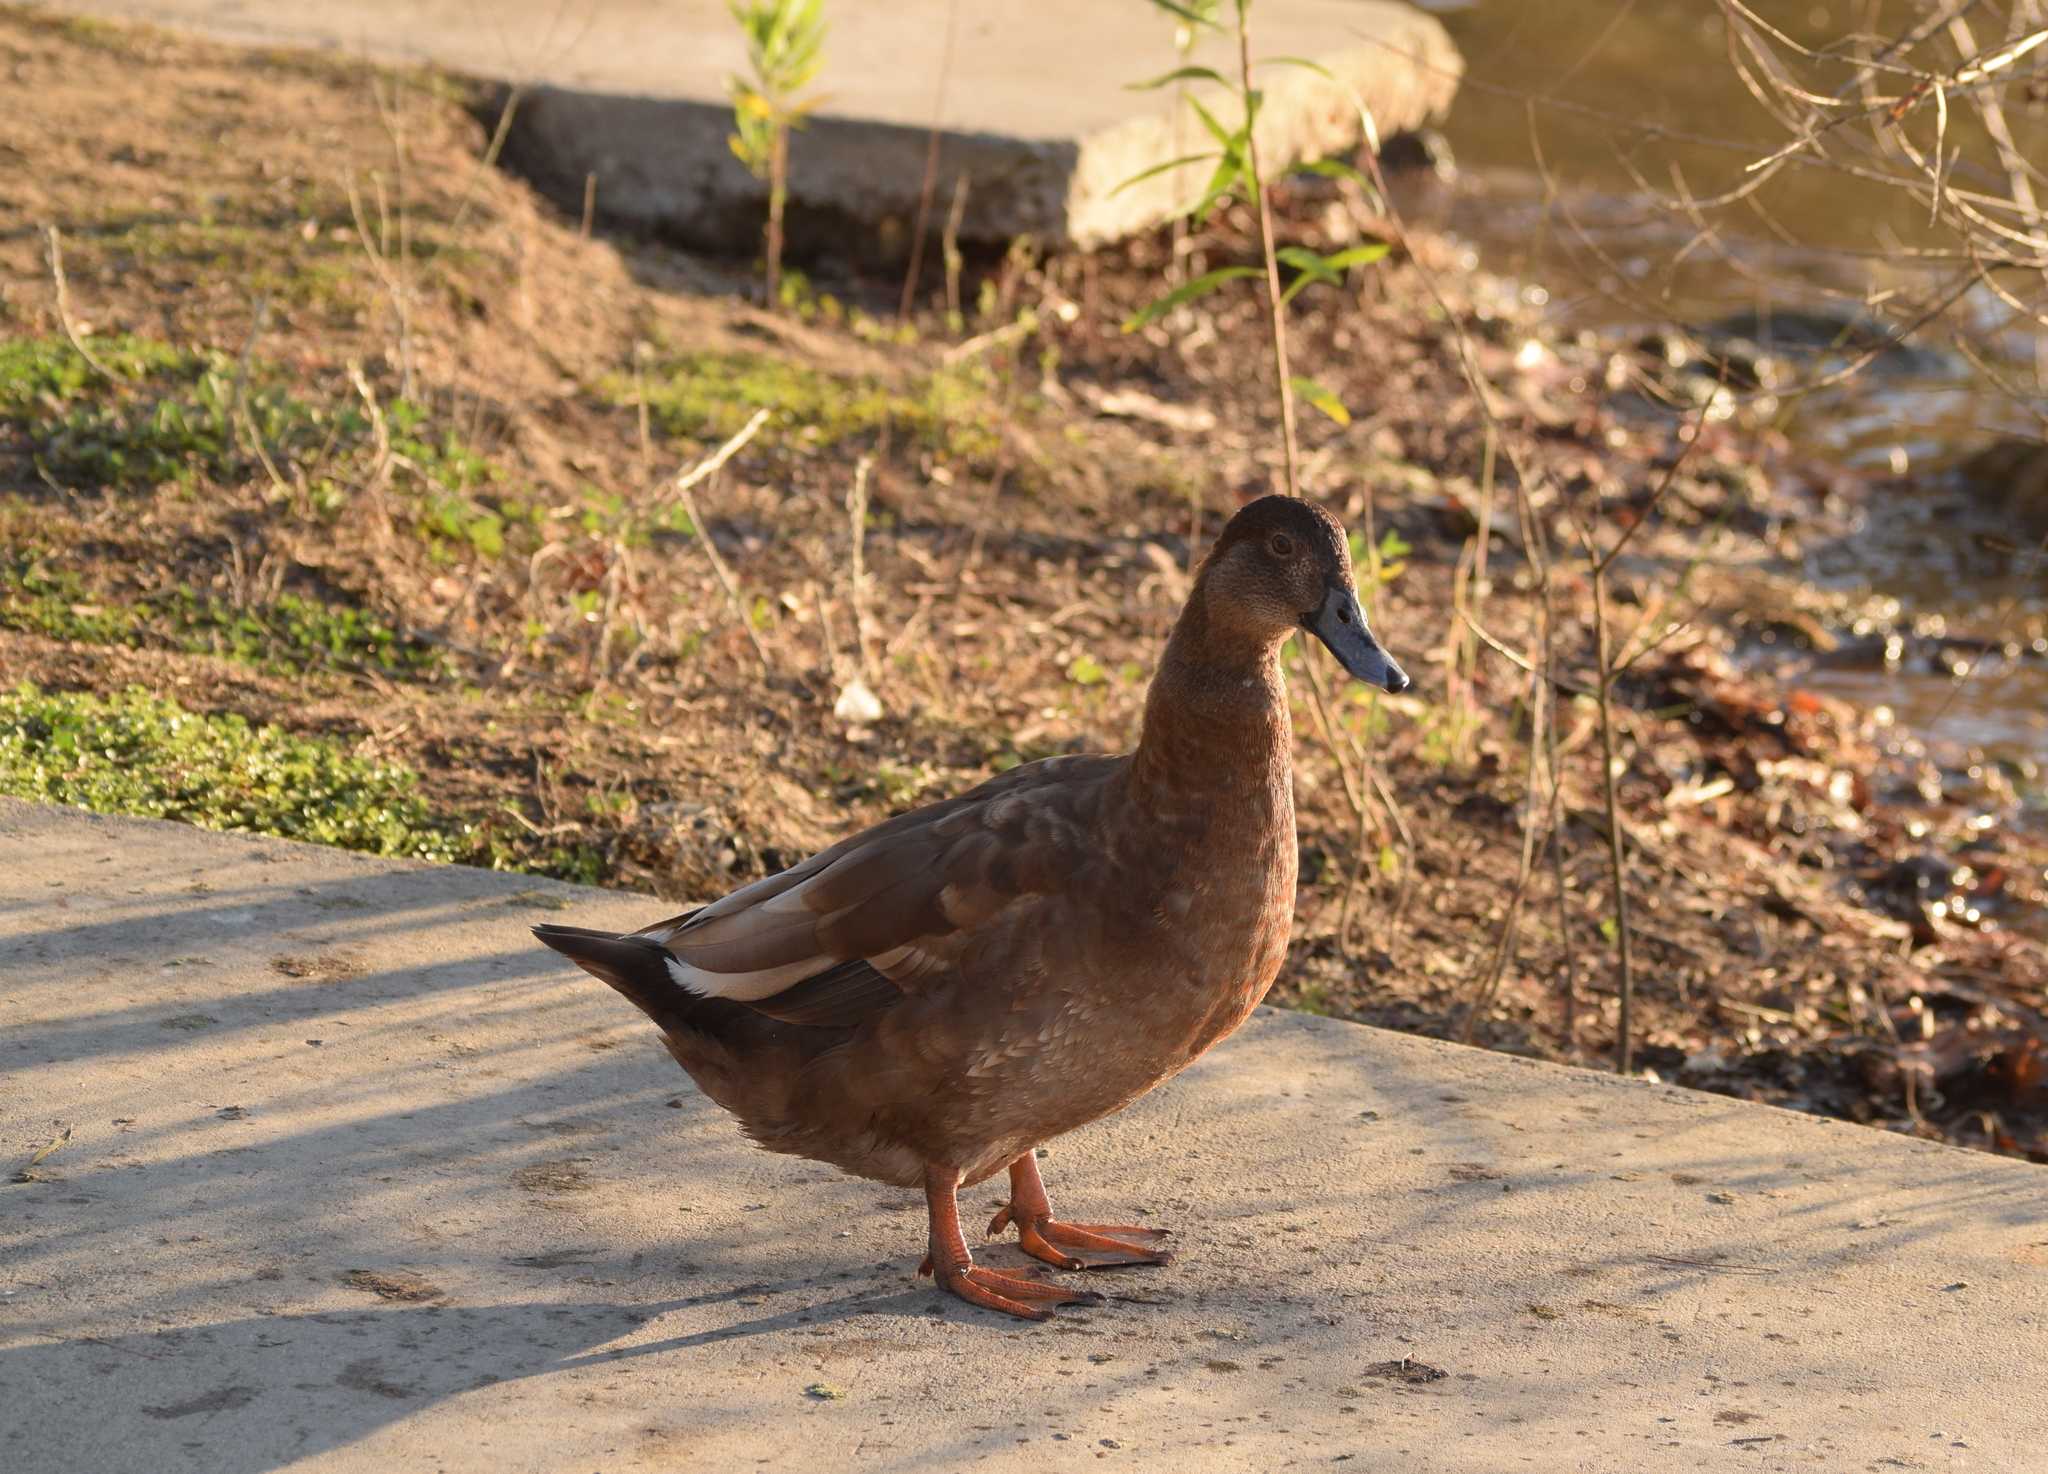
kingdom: Animalia
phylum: Chordata
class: Aves
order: Anseriformes
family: Anatidae
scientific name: Anatidae
